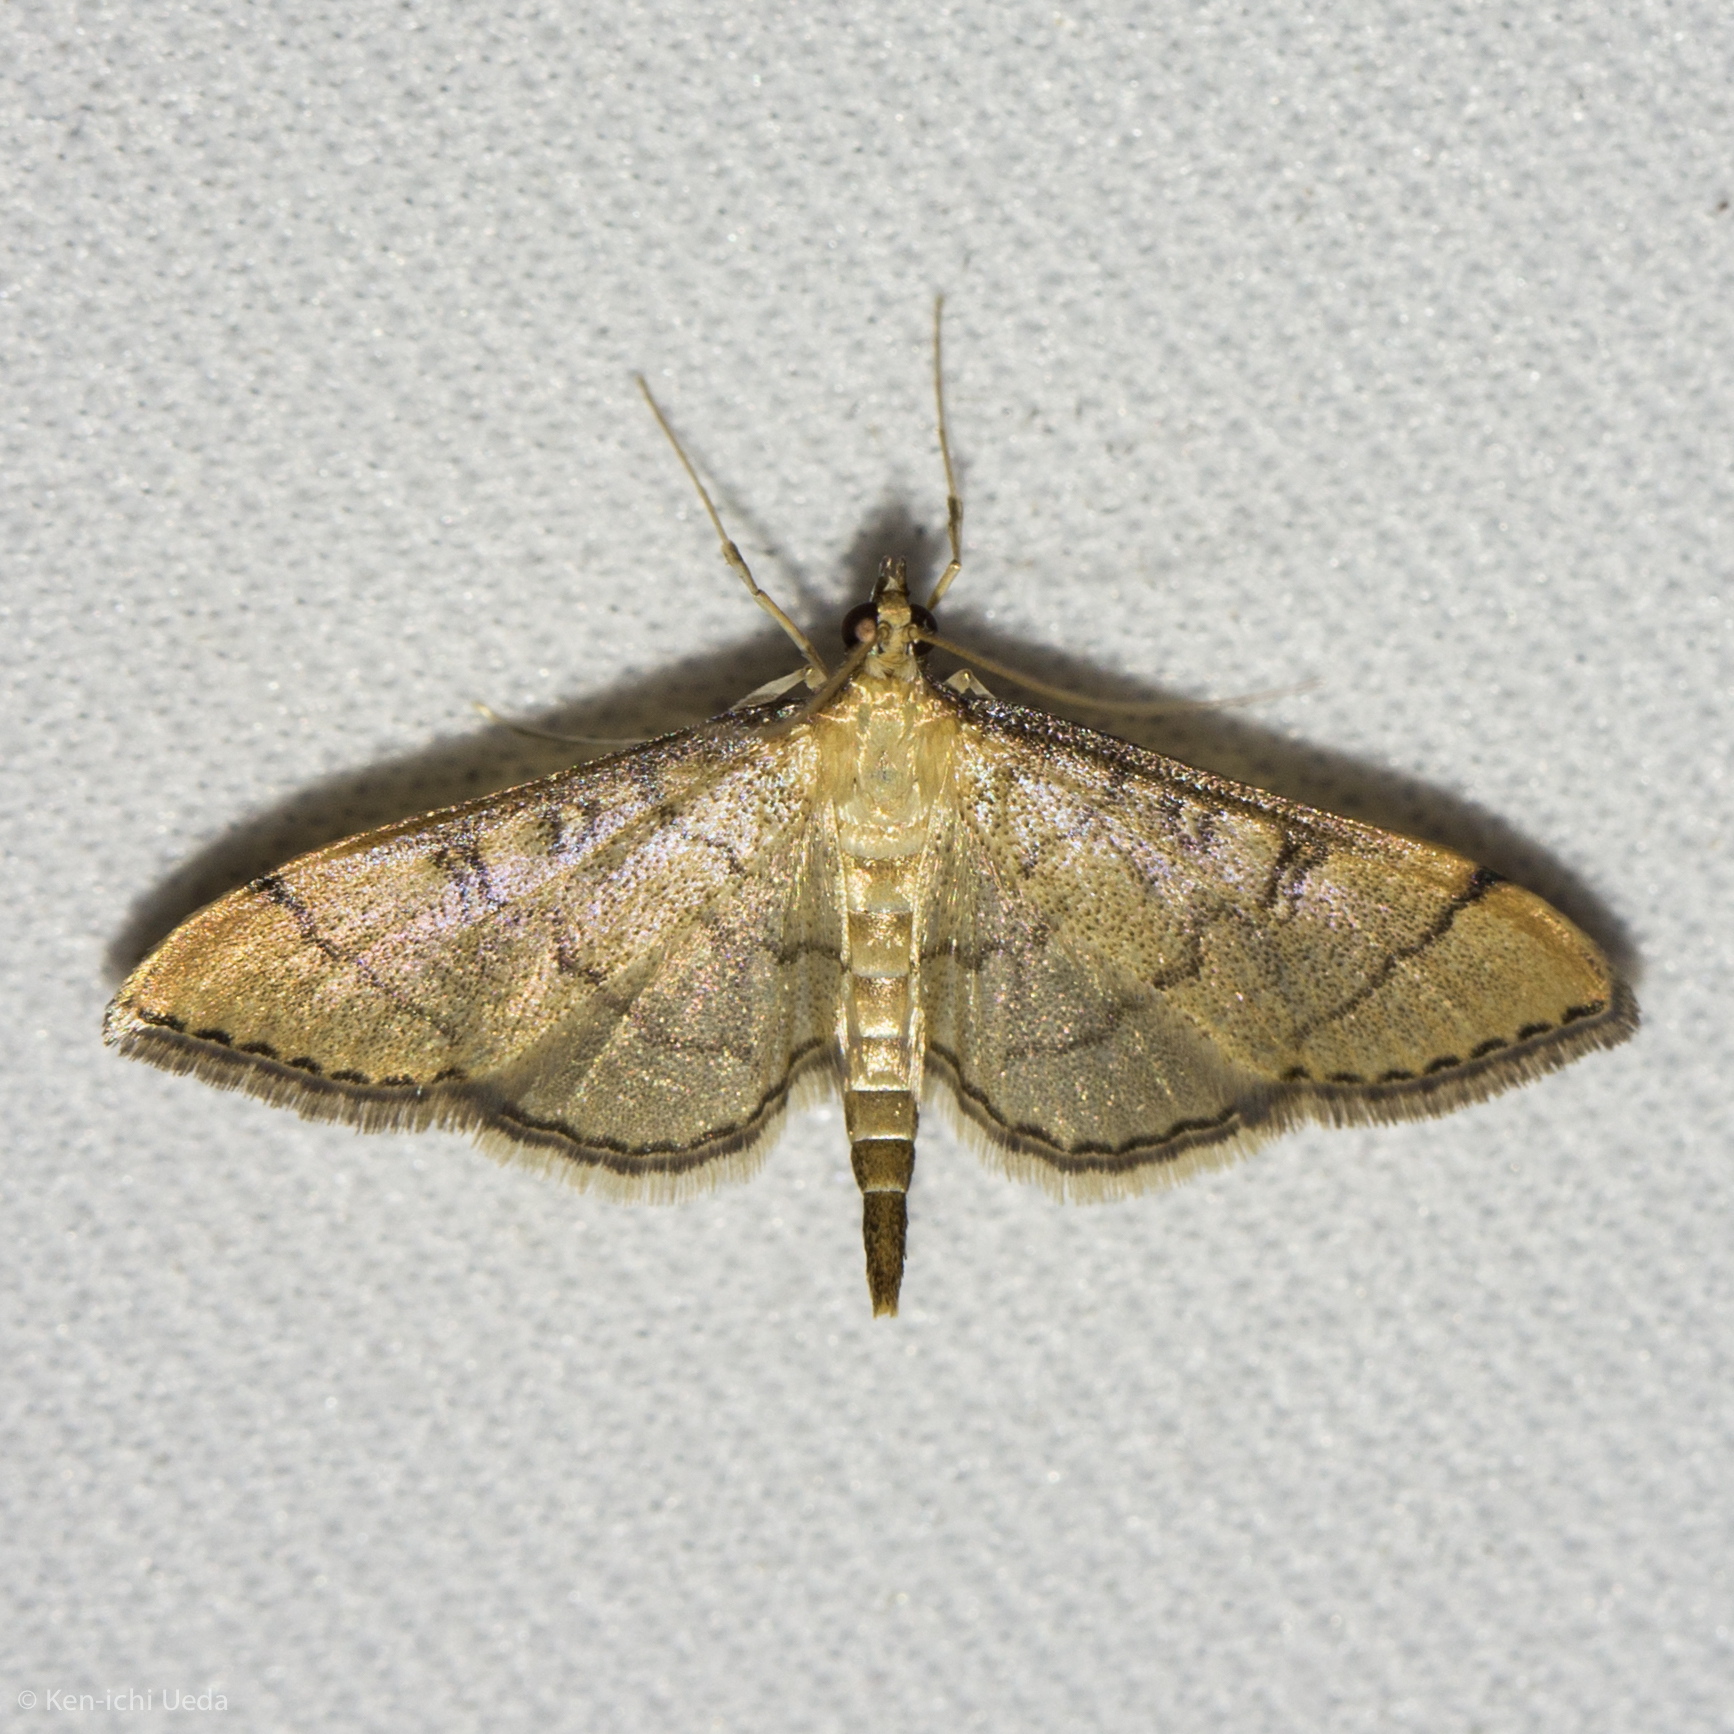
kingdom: Animalia
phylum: Arthropoda
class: Insecta
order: Lepidoptera
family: Crambidae
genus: Lamprosema
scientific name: Lamprosema Blepharomastix ranalis
